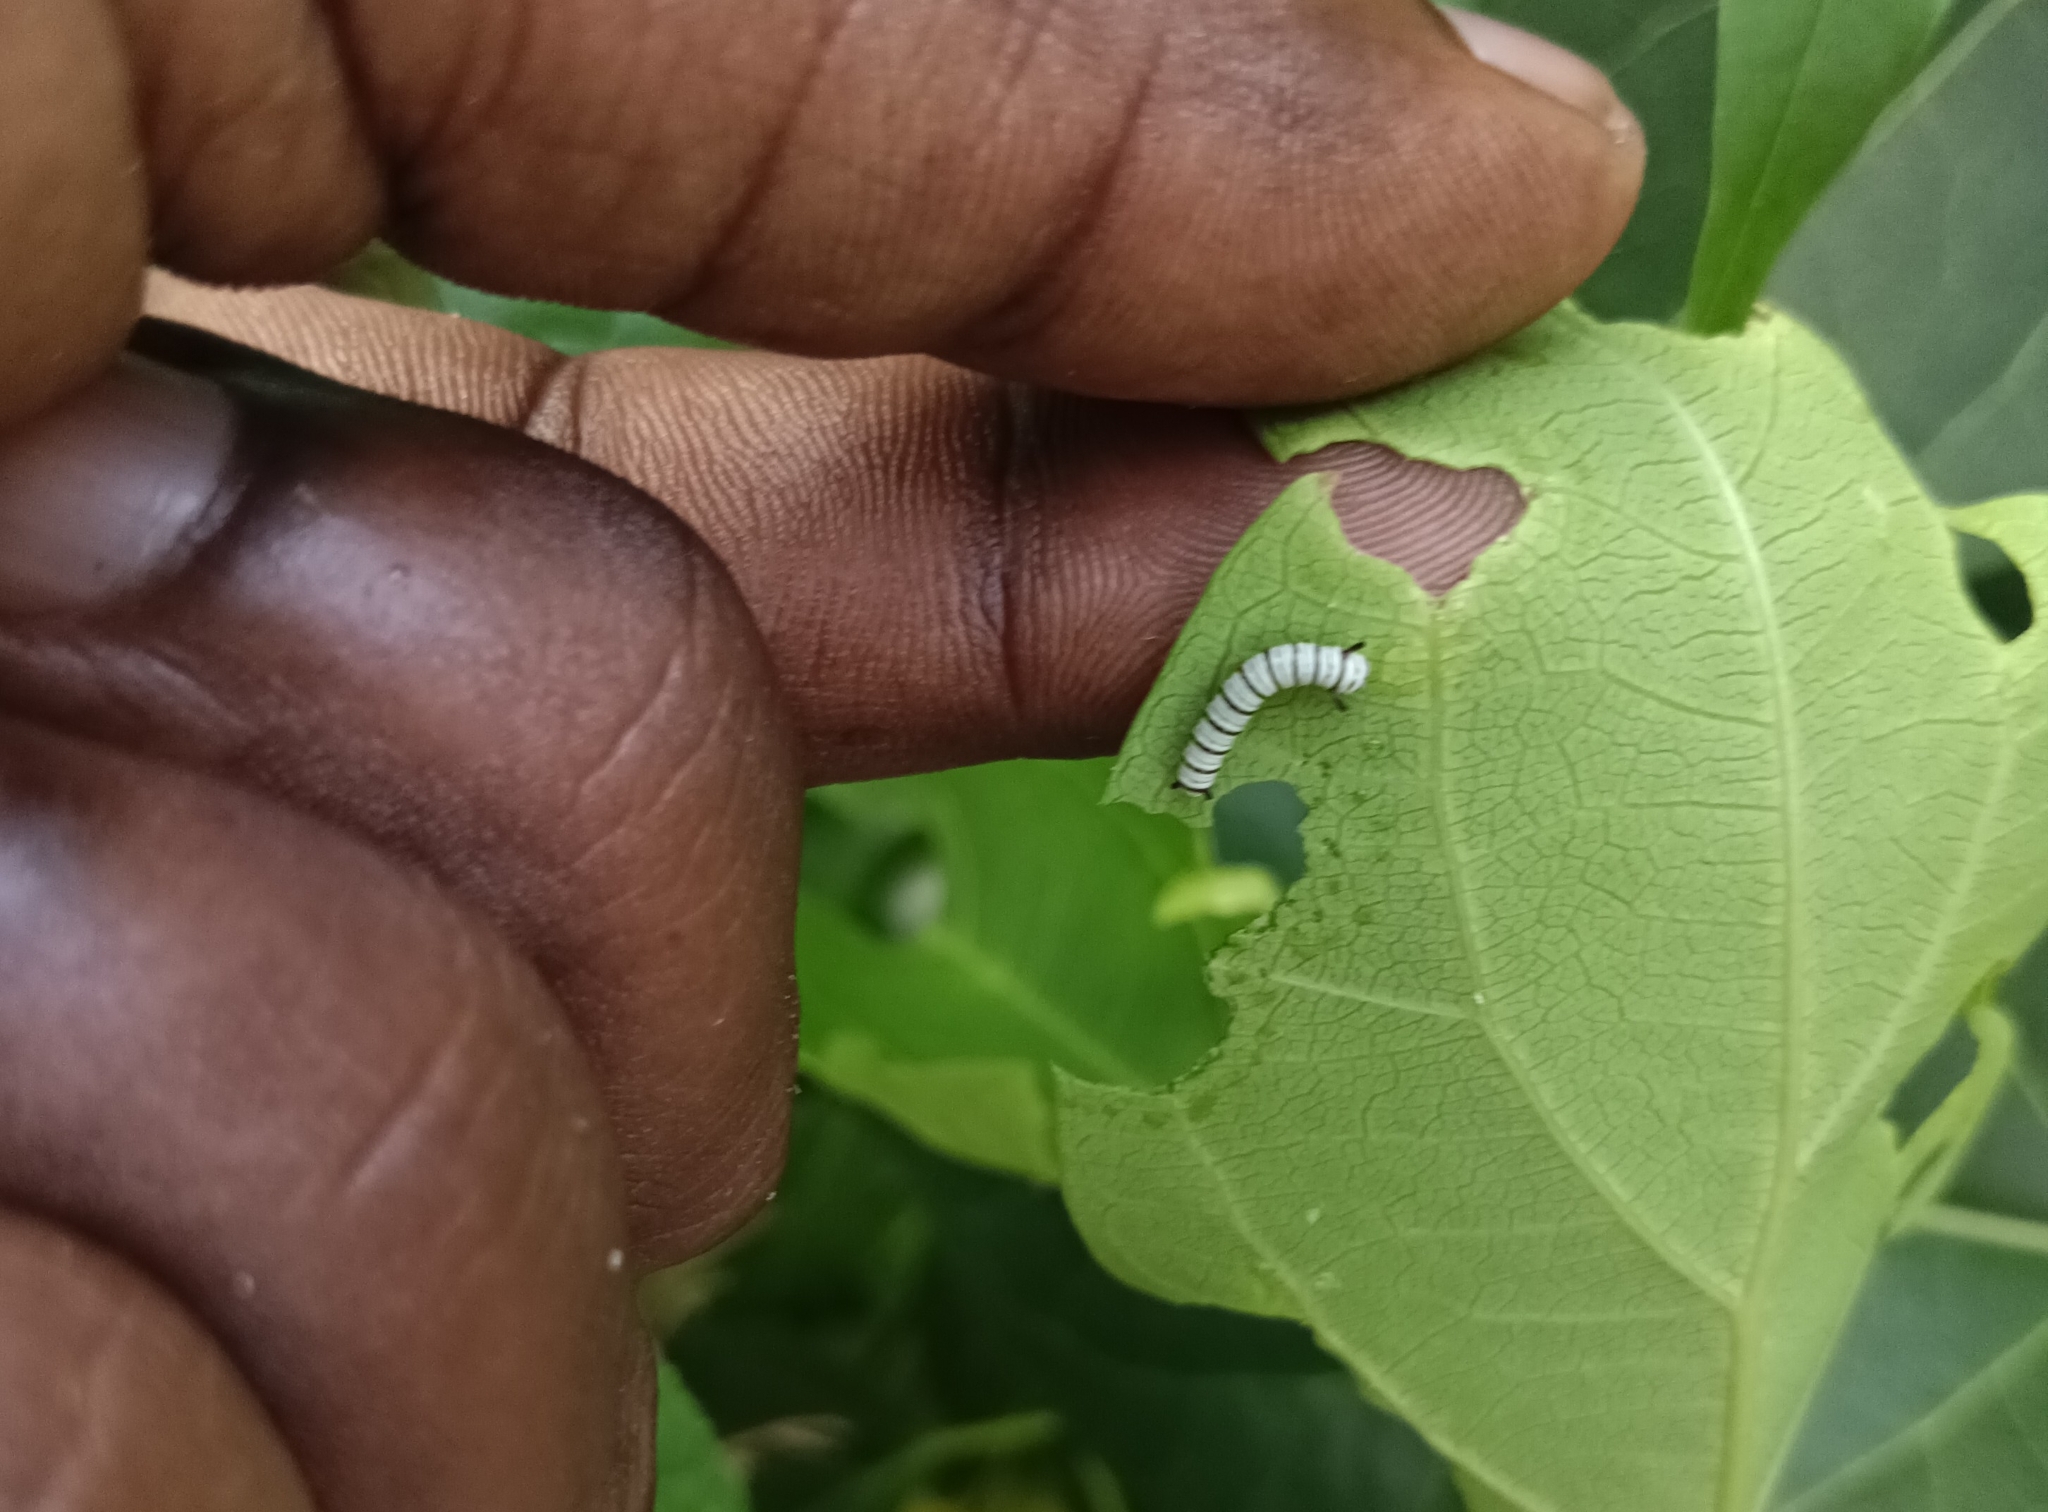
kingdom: Animalia
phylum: Arthropoda
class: Insecta
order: Lepidoptera
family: Nymphalidae
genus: Tirumala
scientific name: Tirumala limniace
